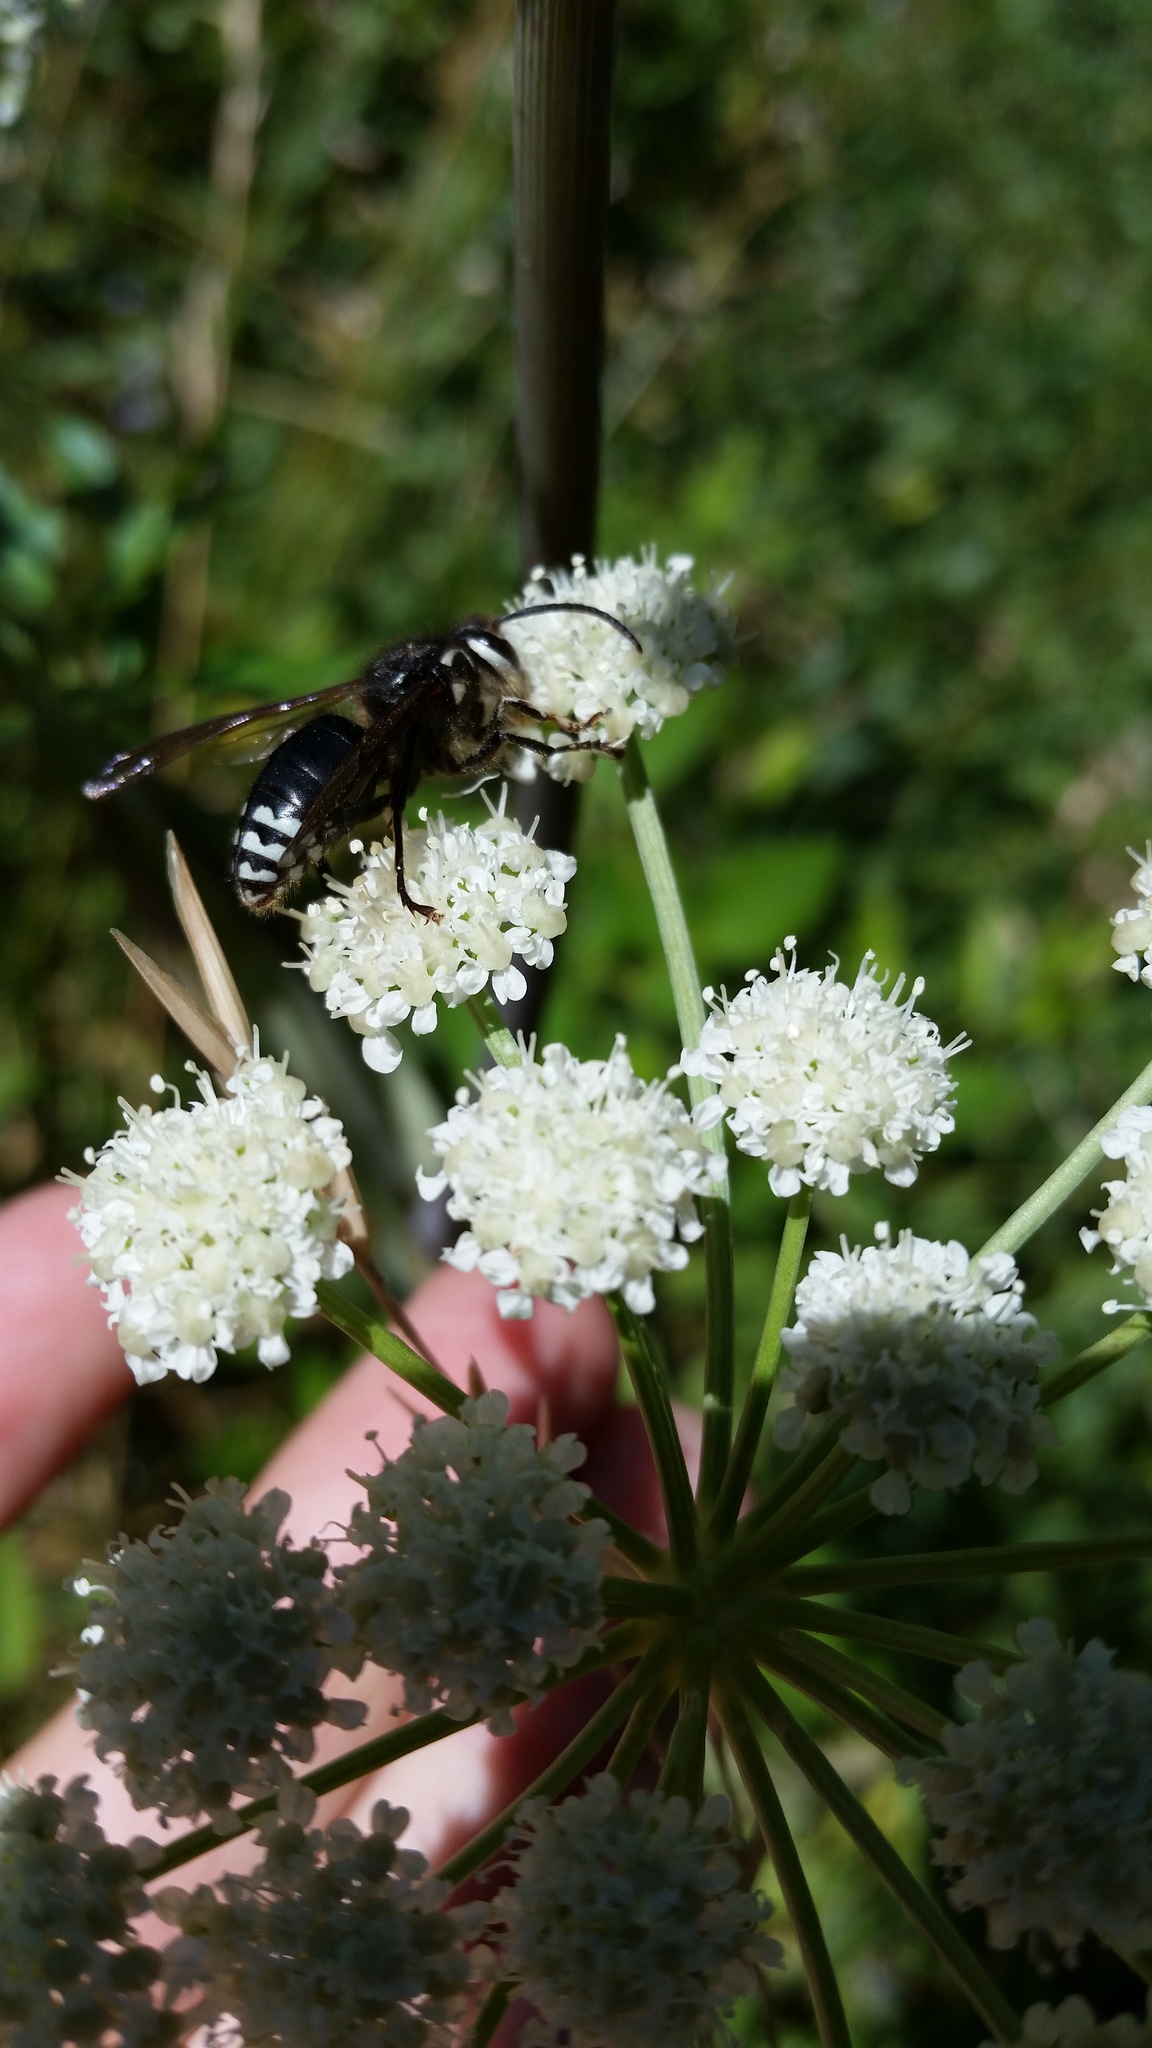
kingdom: Animalia
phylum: Arthropoda
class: Insecta
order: Hymenoptera
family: Vespidae
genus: Dolichovespula
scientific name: Dolichovespula maculata
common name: Bald-faced hornet
